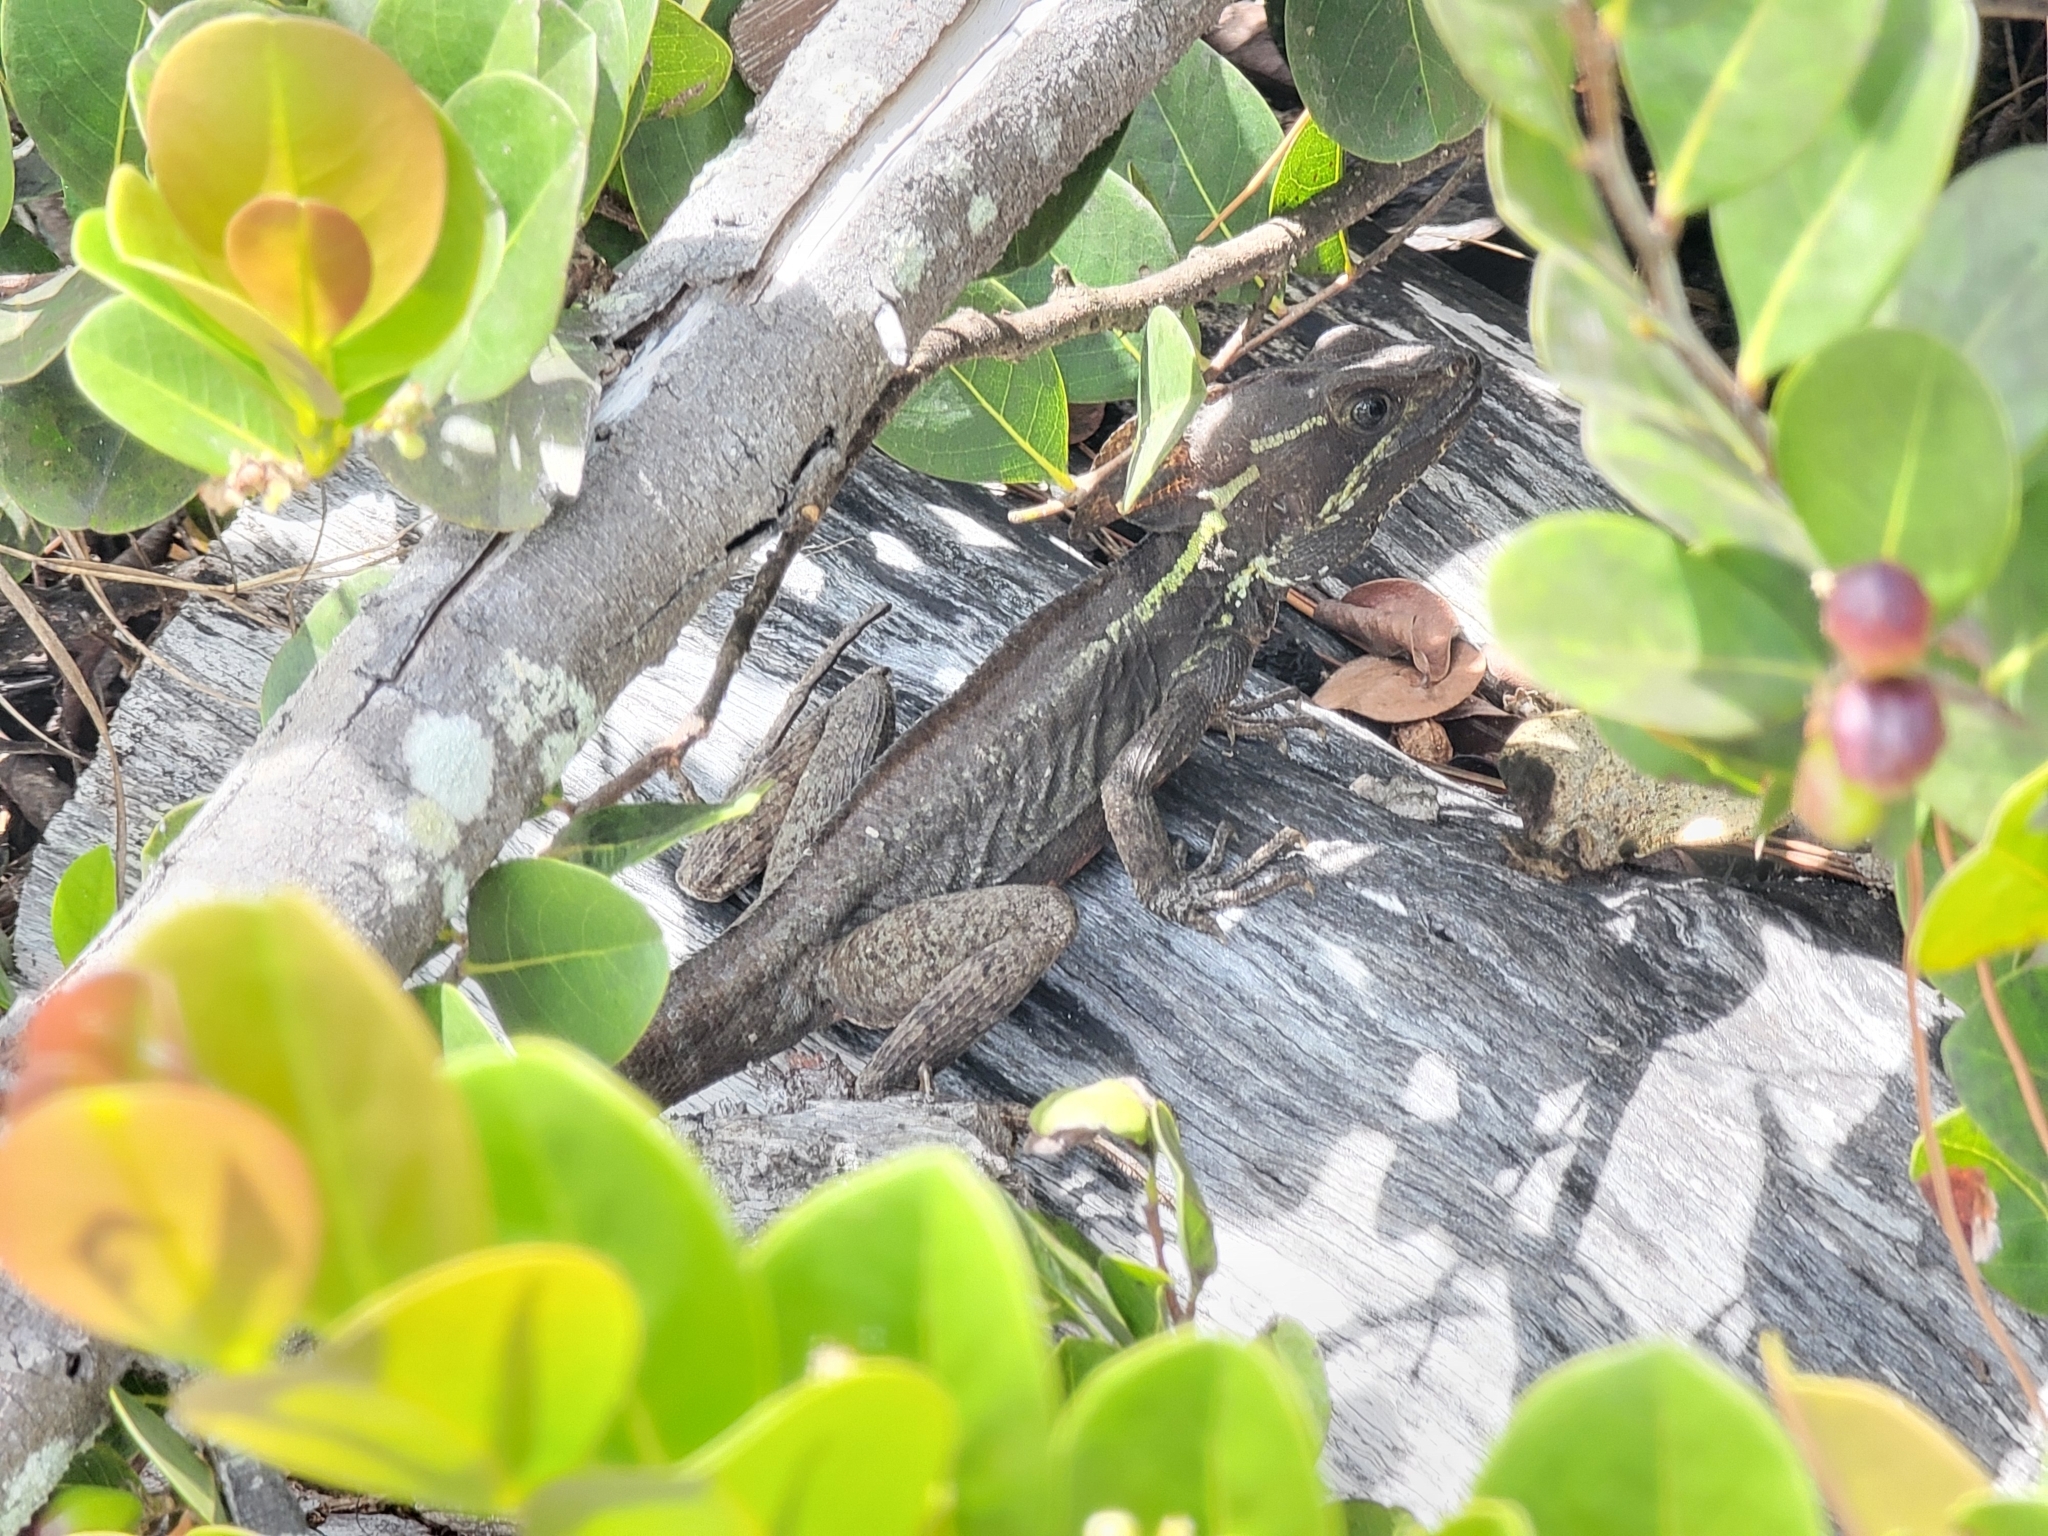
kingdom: Animalia
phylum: Chordata
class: Squamata
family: Corytophanidae
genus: Basiliscus
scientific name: Basiliscus vittatus
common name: Brown basilisk
